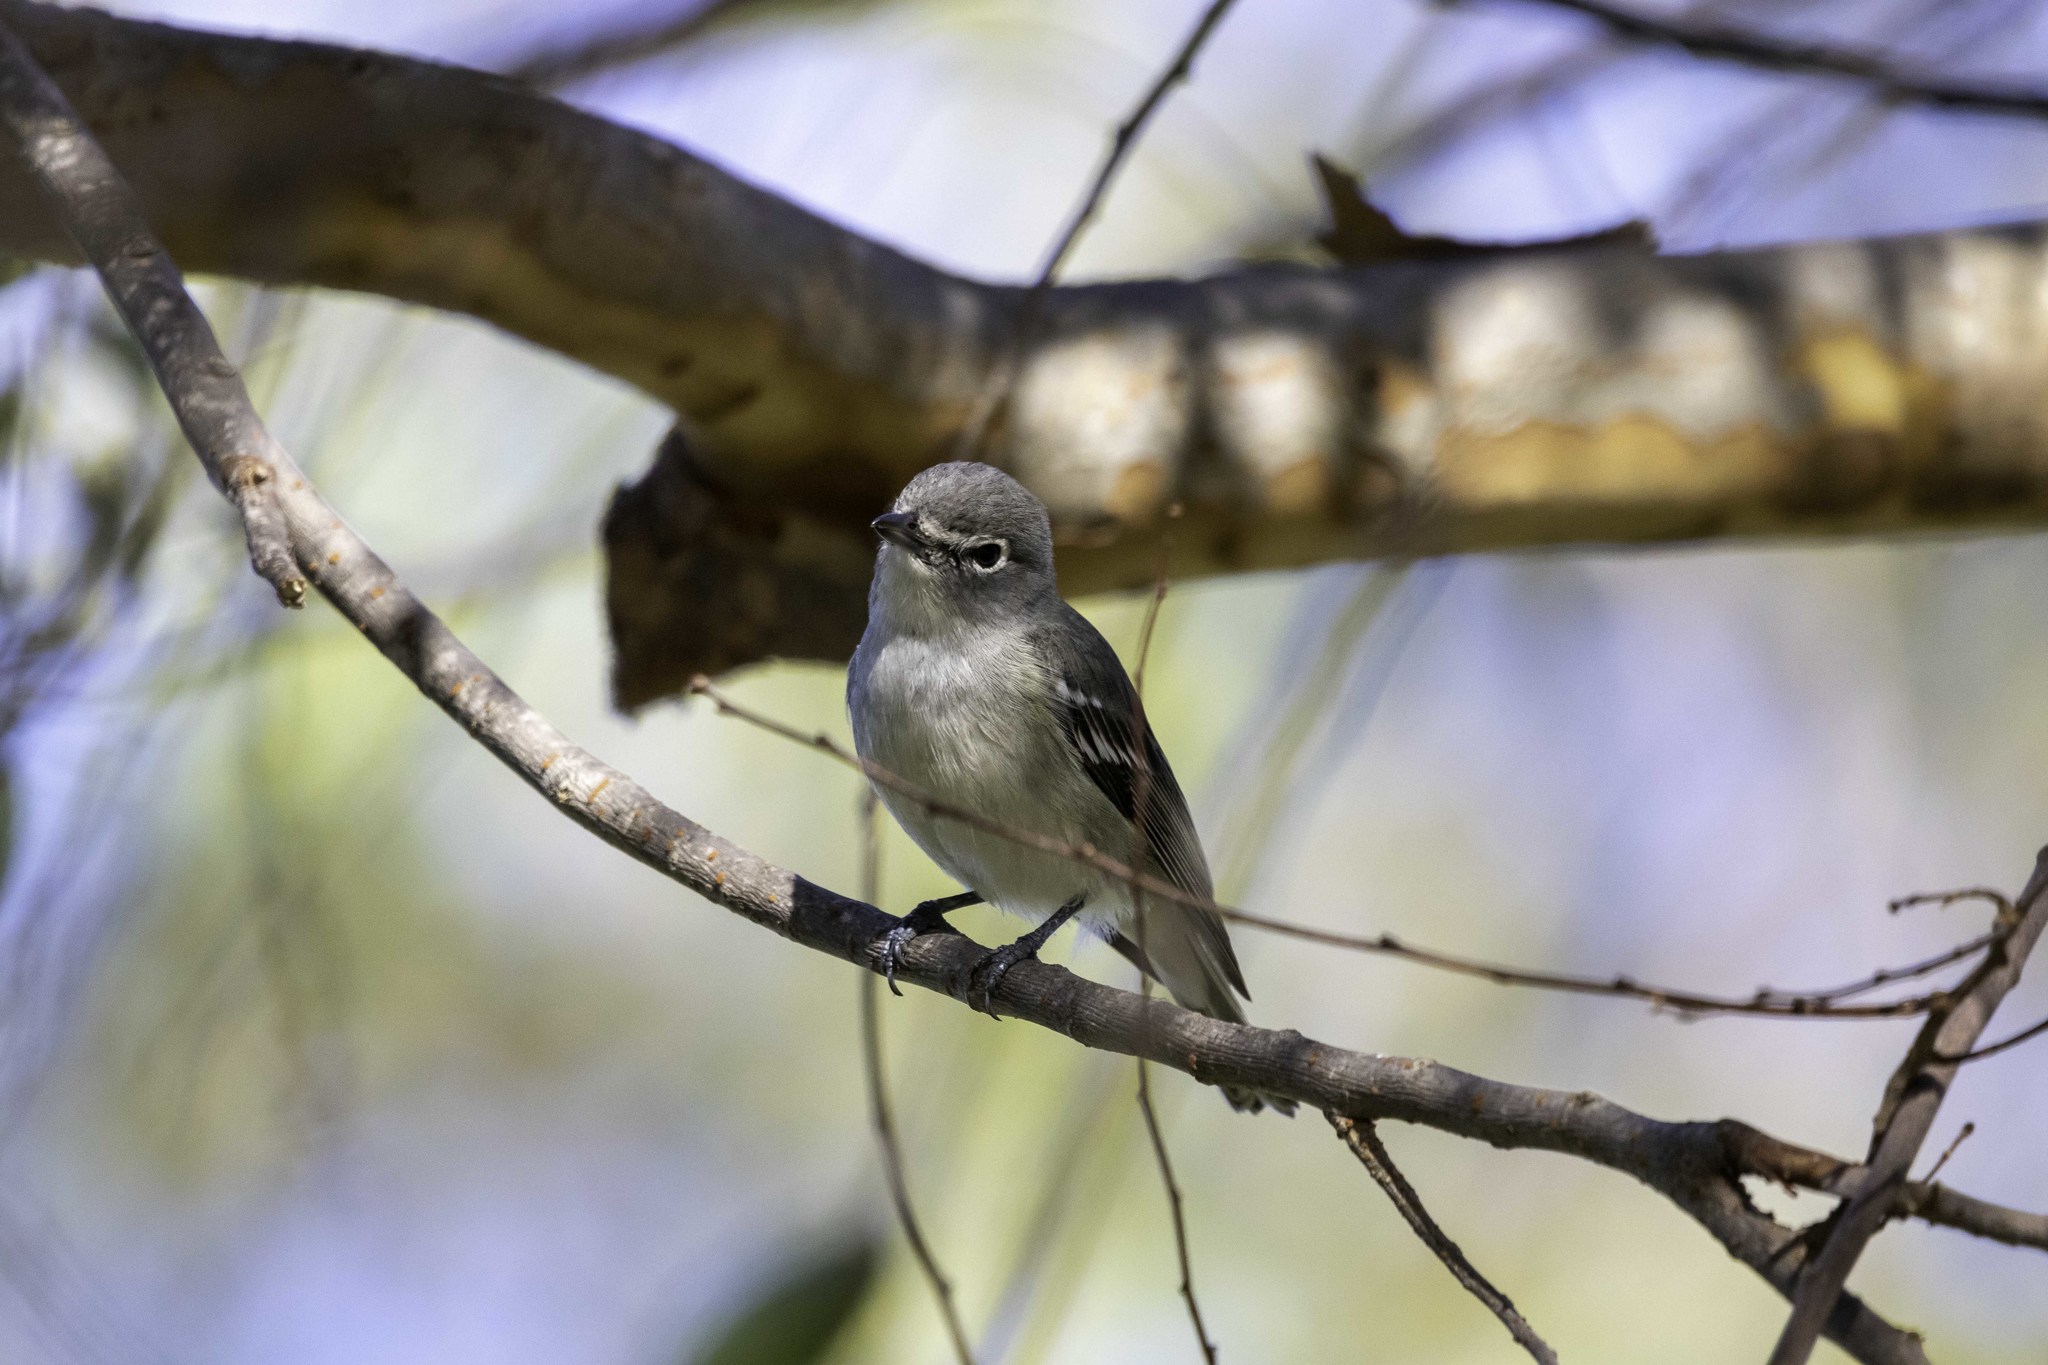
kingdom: Animalia
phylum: Chordata
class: Aves
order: Passeriformes
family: Vireonidae
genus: Vireo
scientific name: Vireo plumbeus
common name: Plumbeous vireo
